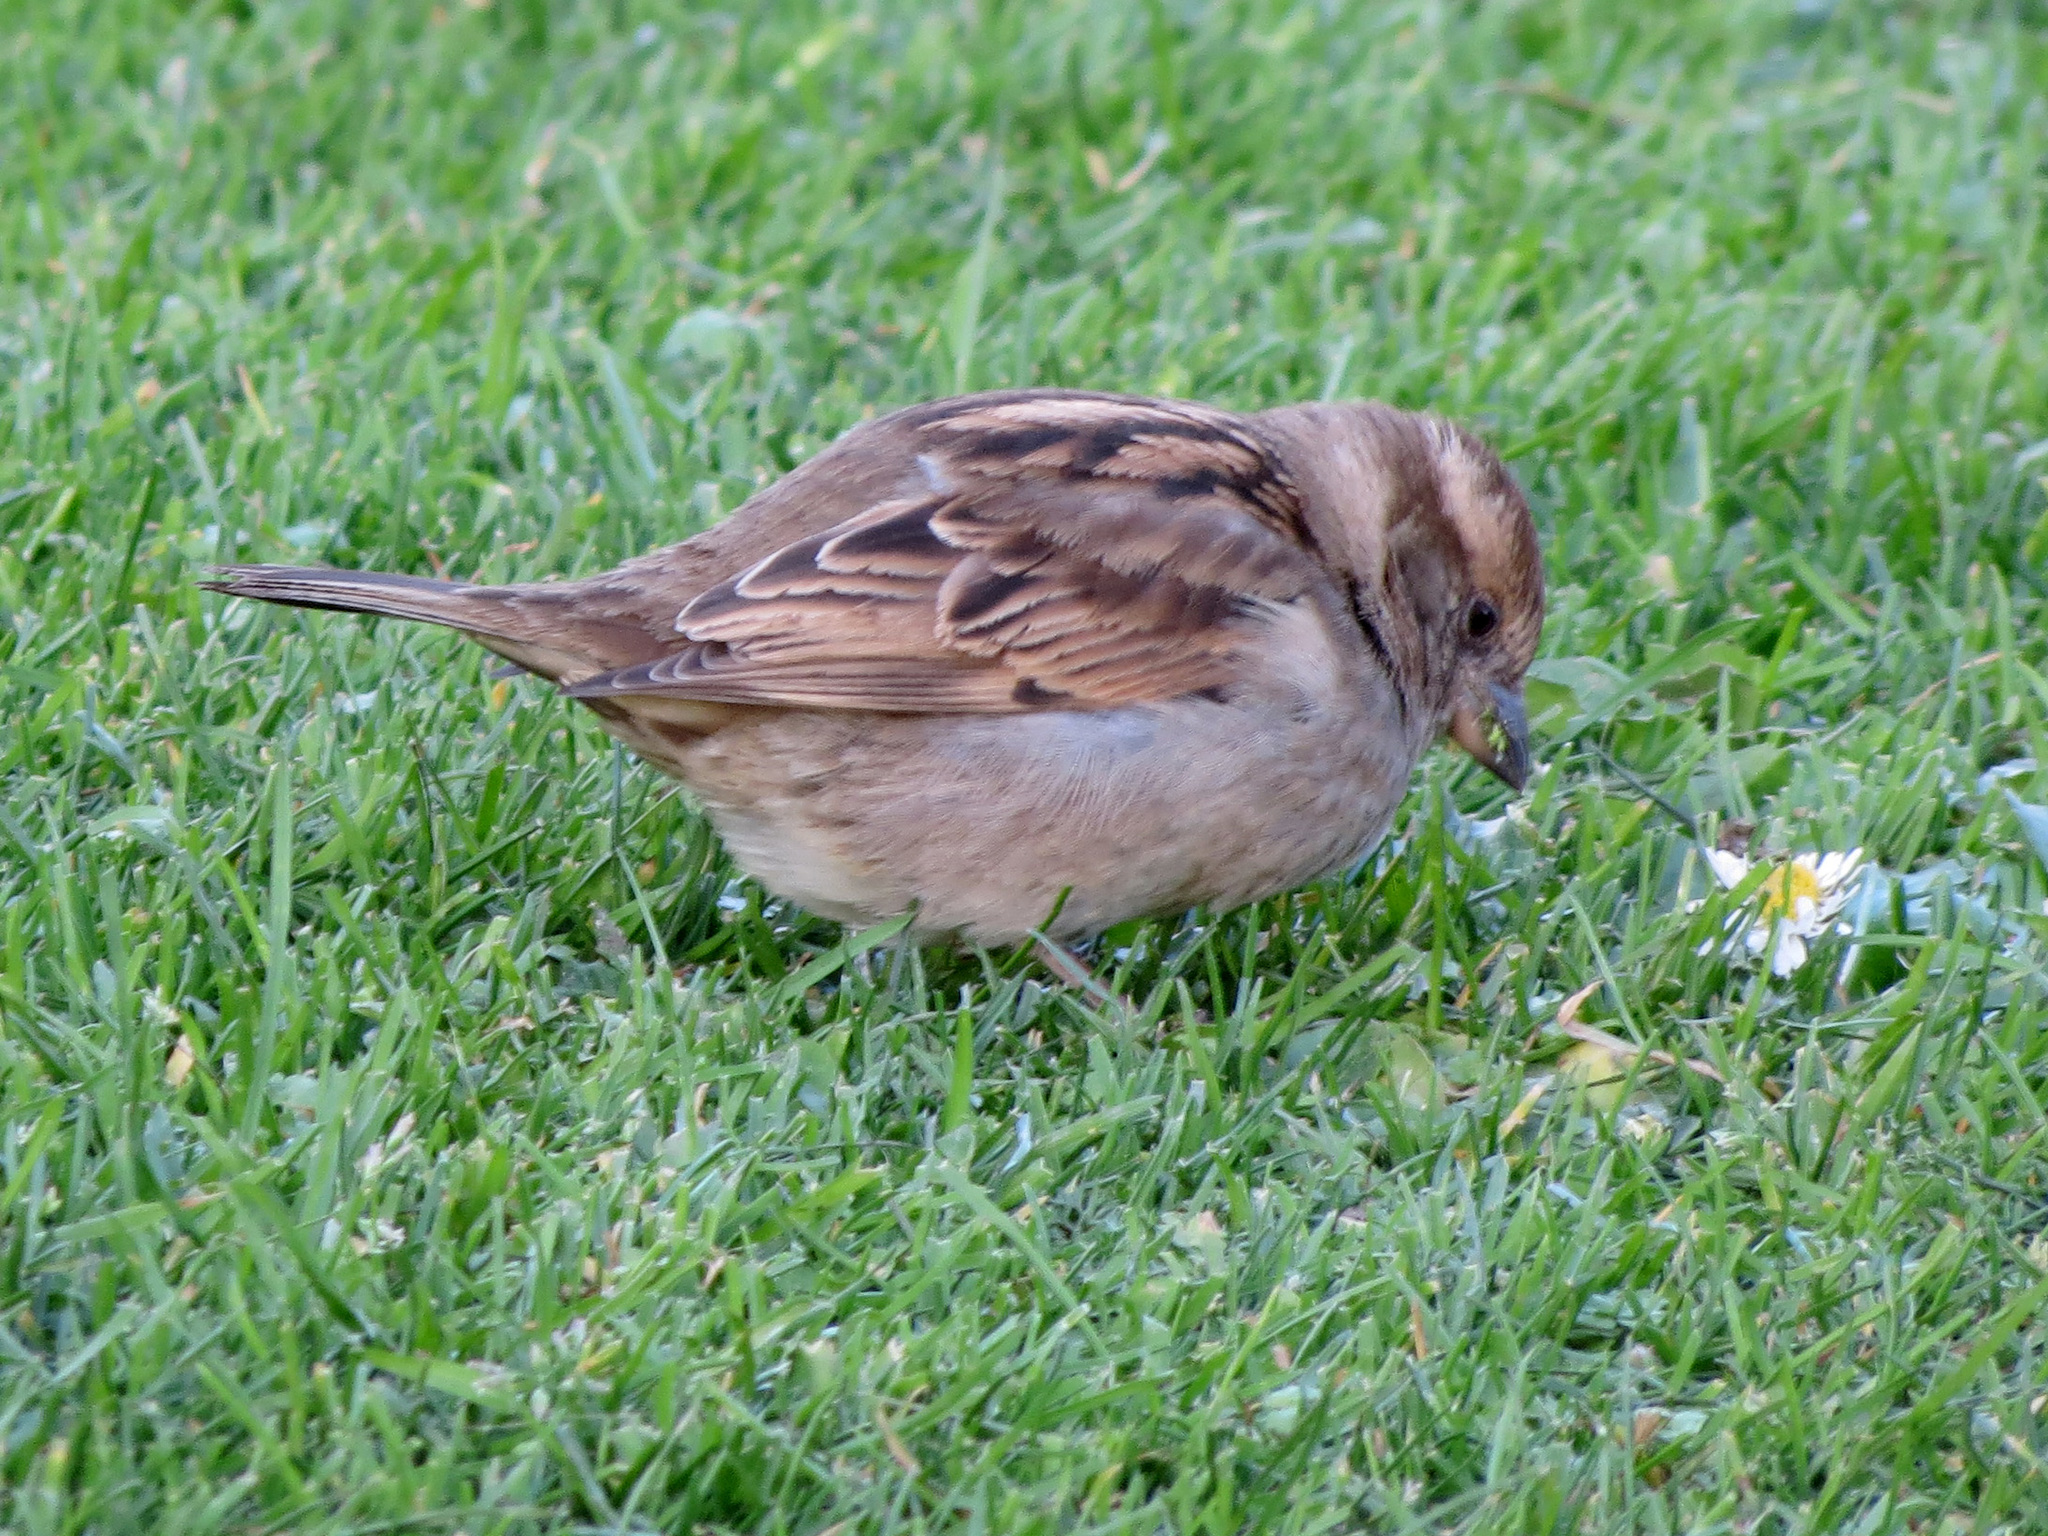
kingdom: Animalia
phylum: Chordata
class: Aves
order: Passeriformes
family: Passeridae
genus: Passer
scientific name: Passer domesticus
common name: House sparrow
